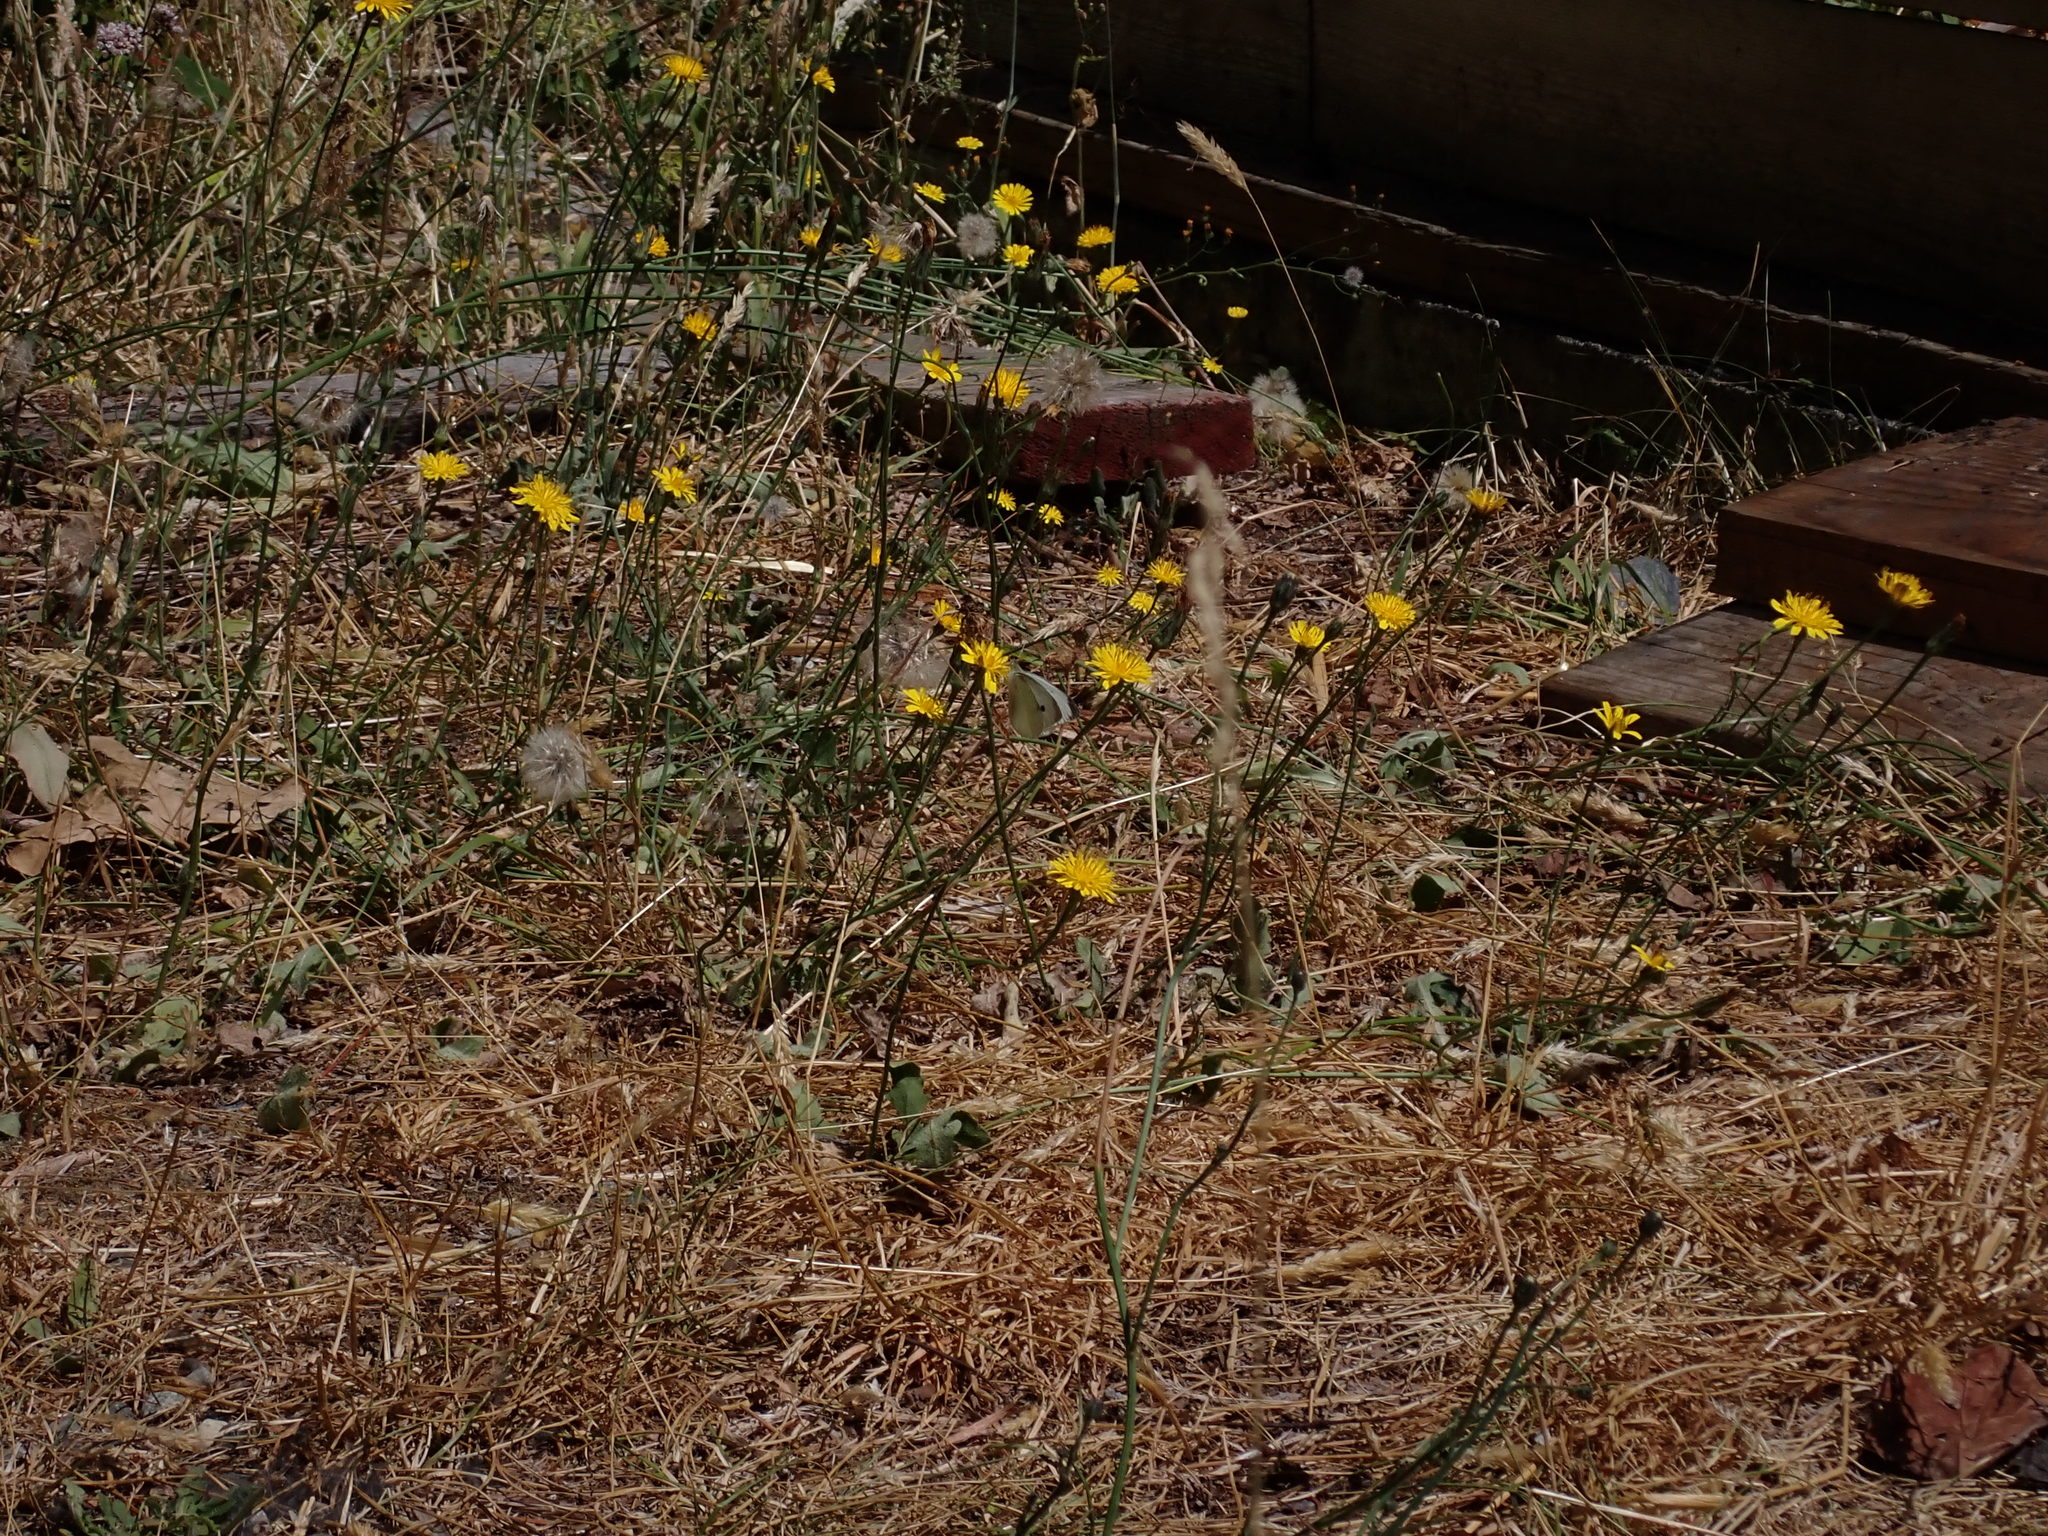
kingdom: Animalia
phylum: Arthropoda
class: Insecta
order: Lepidoptera
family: Pieridae
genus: Pieris
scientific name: Pieris rapae
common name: Small white
